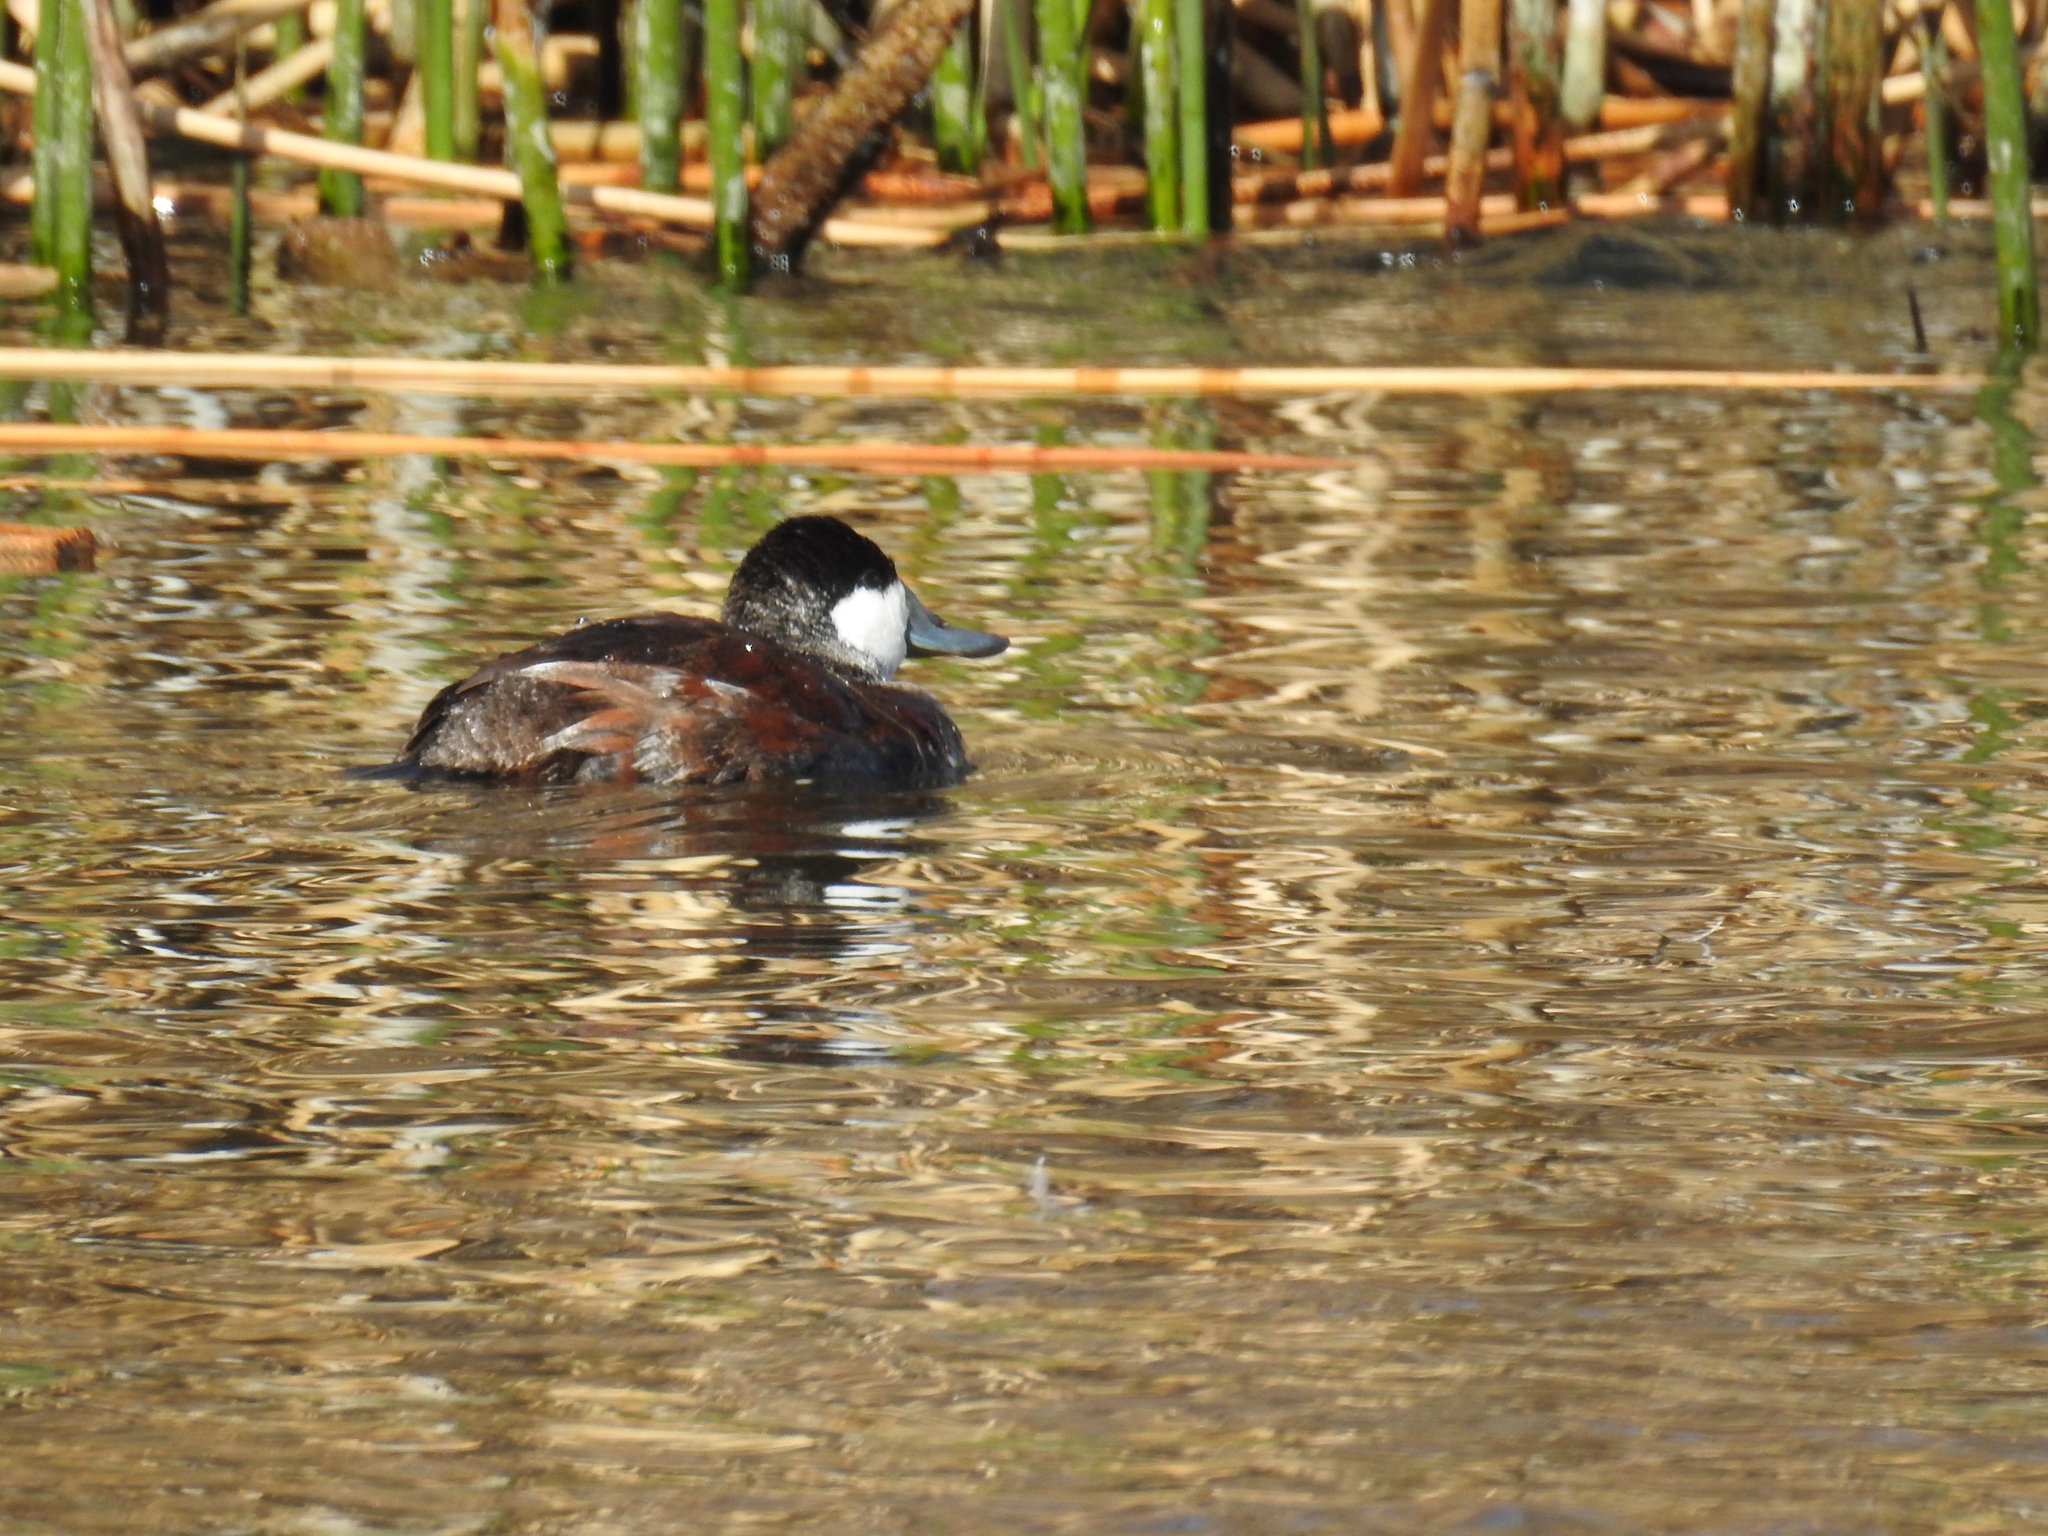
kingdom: Animalia
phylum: Chordata
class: Aves
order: Anseriformes
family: Anatidae
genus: Oxyura
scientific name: Oxyura jamaicensis
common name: Ruddy duck
